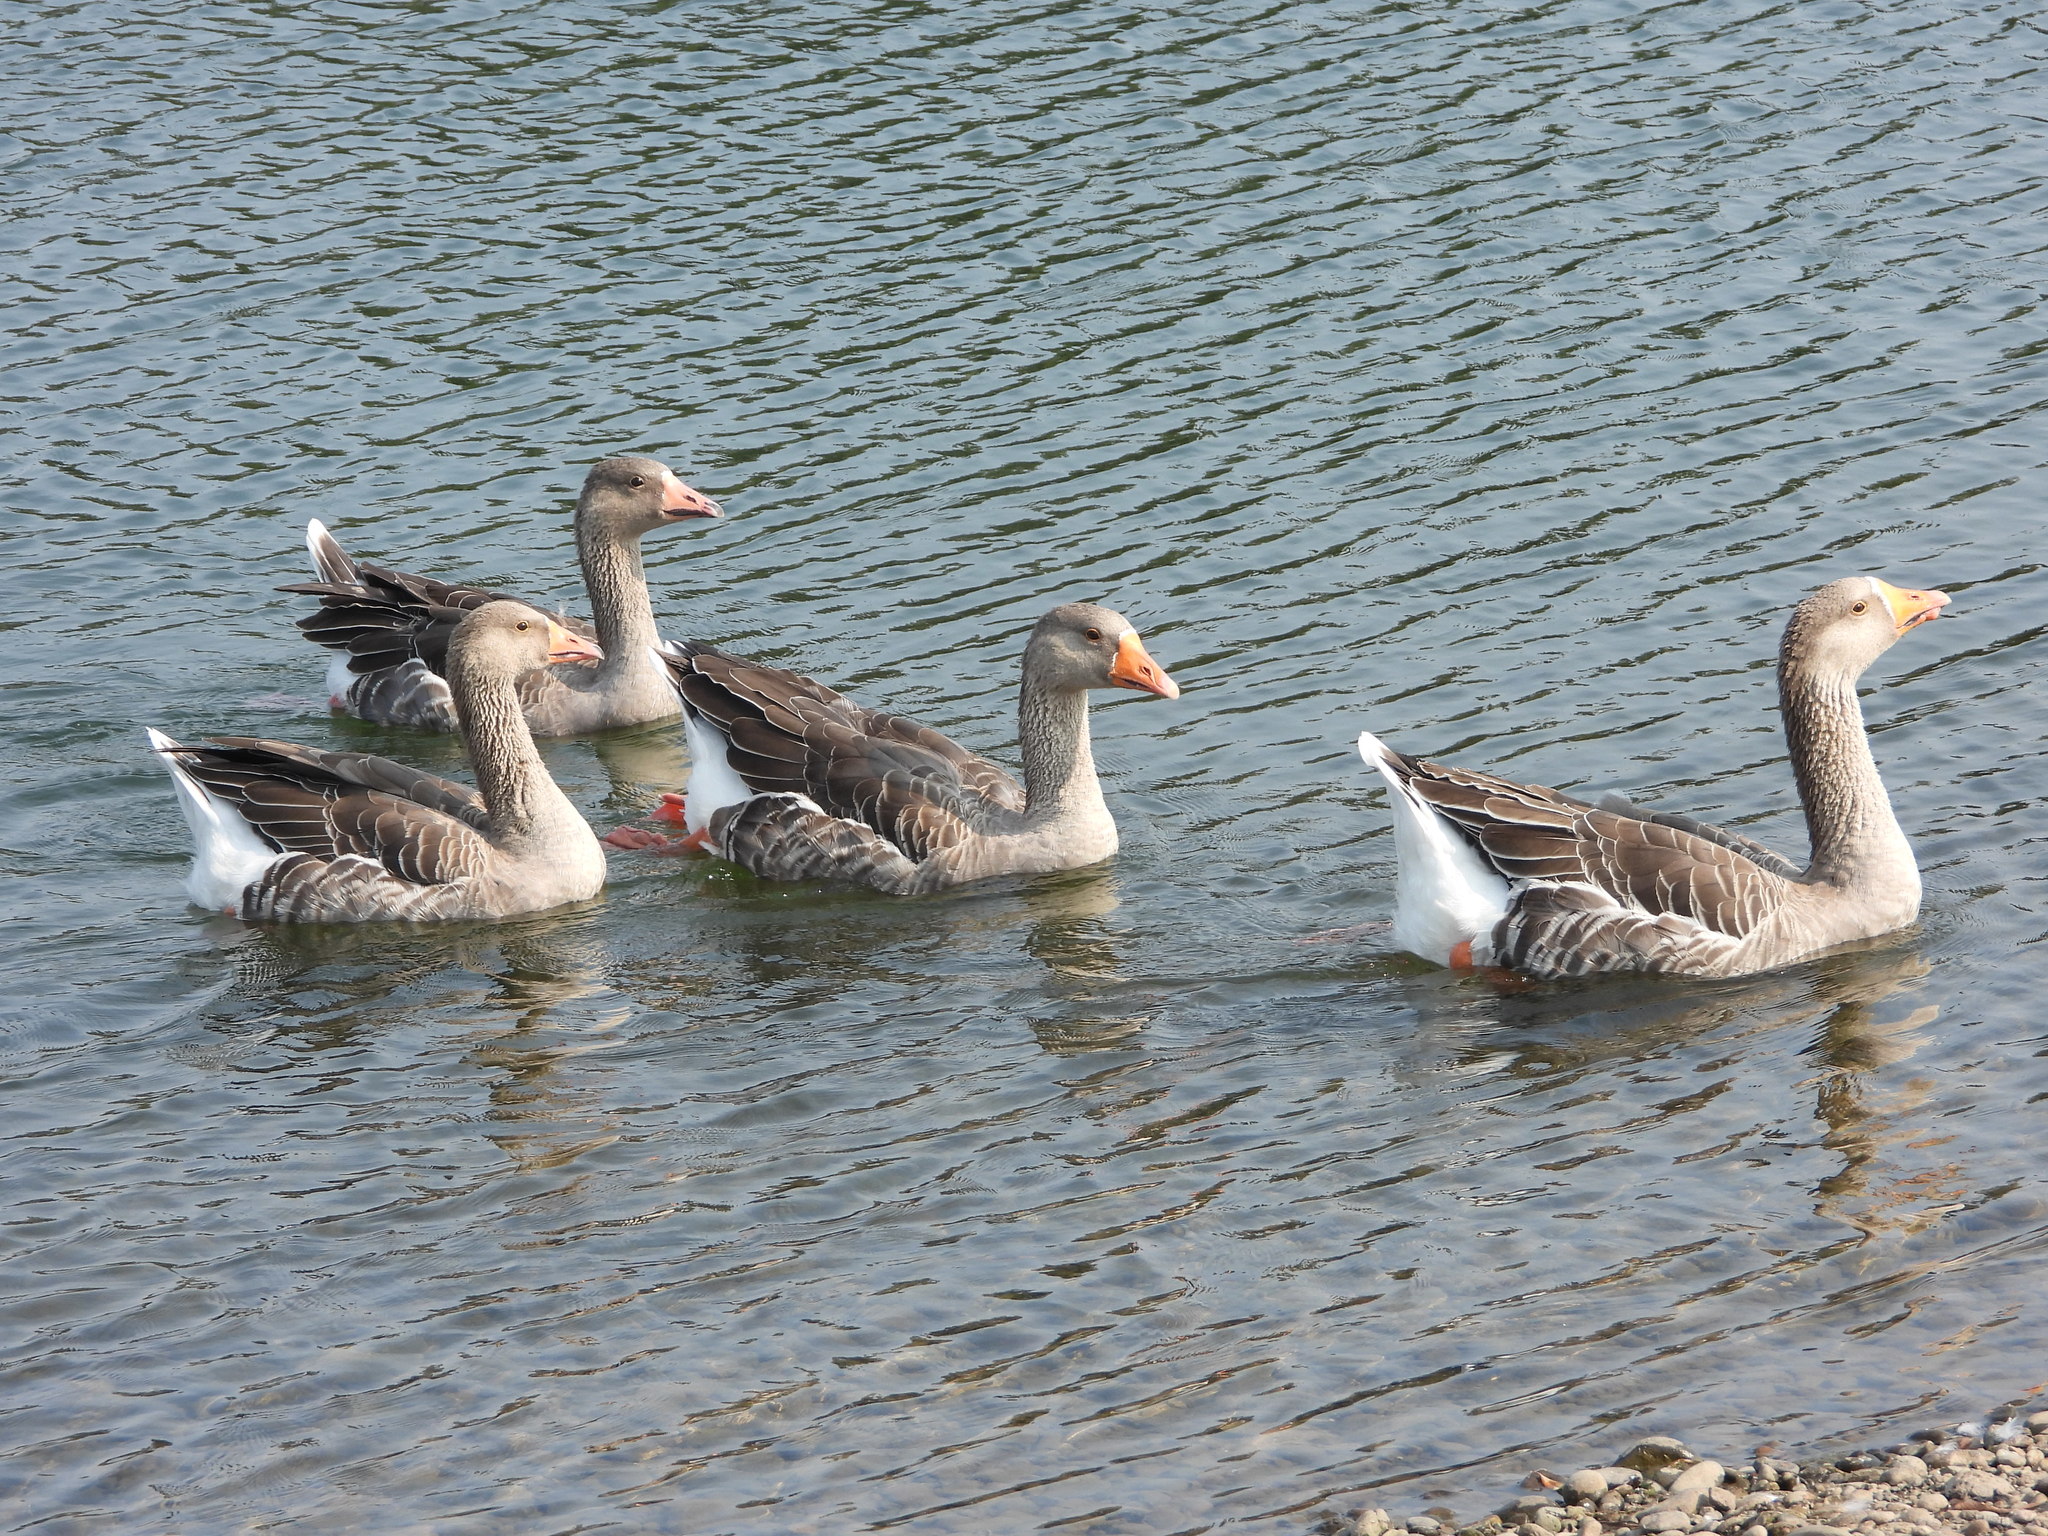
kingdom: Animalia
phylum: Chordata
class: Aves
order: Anseriformes
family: Anatidae
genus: Anser
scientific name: Anser anser
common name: Greylag goose
